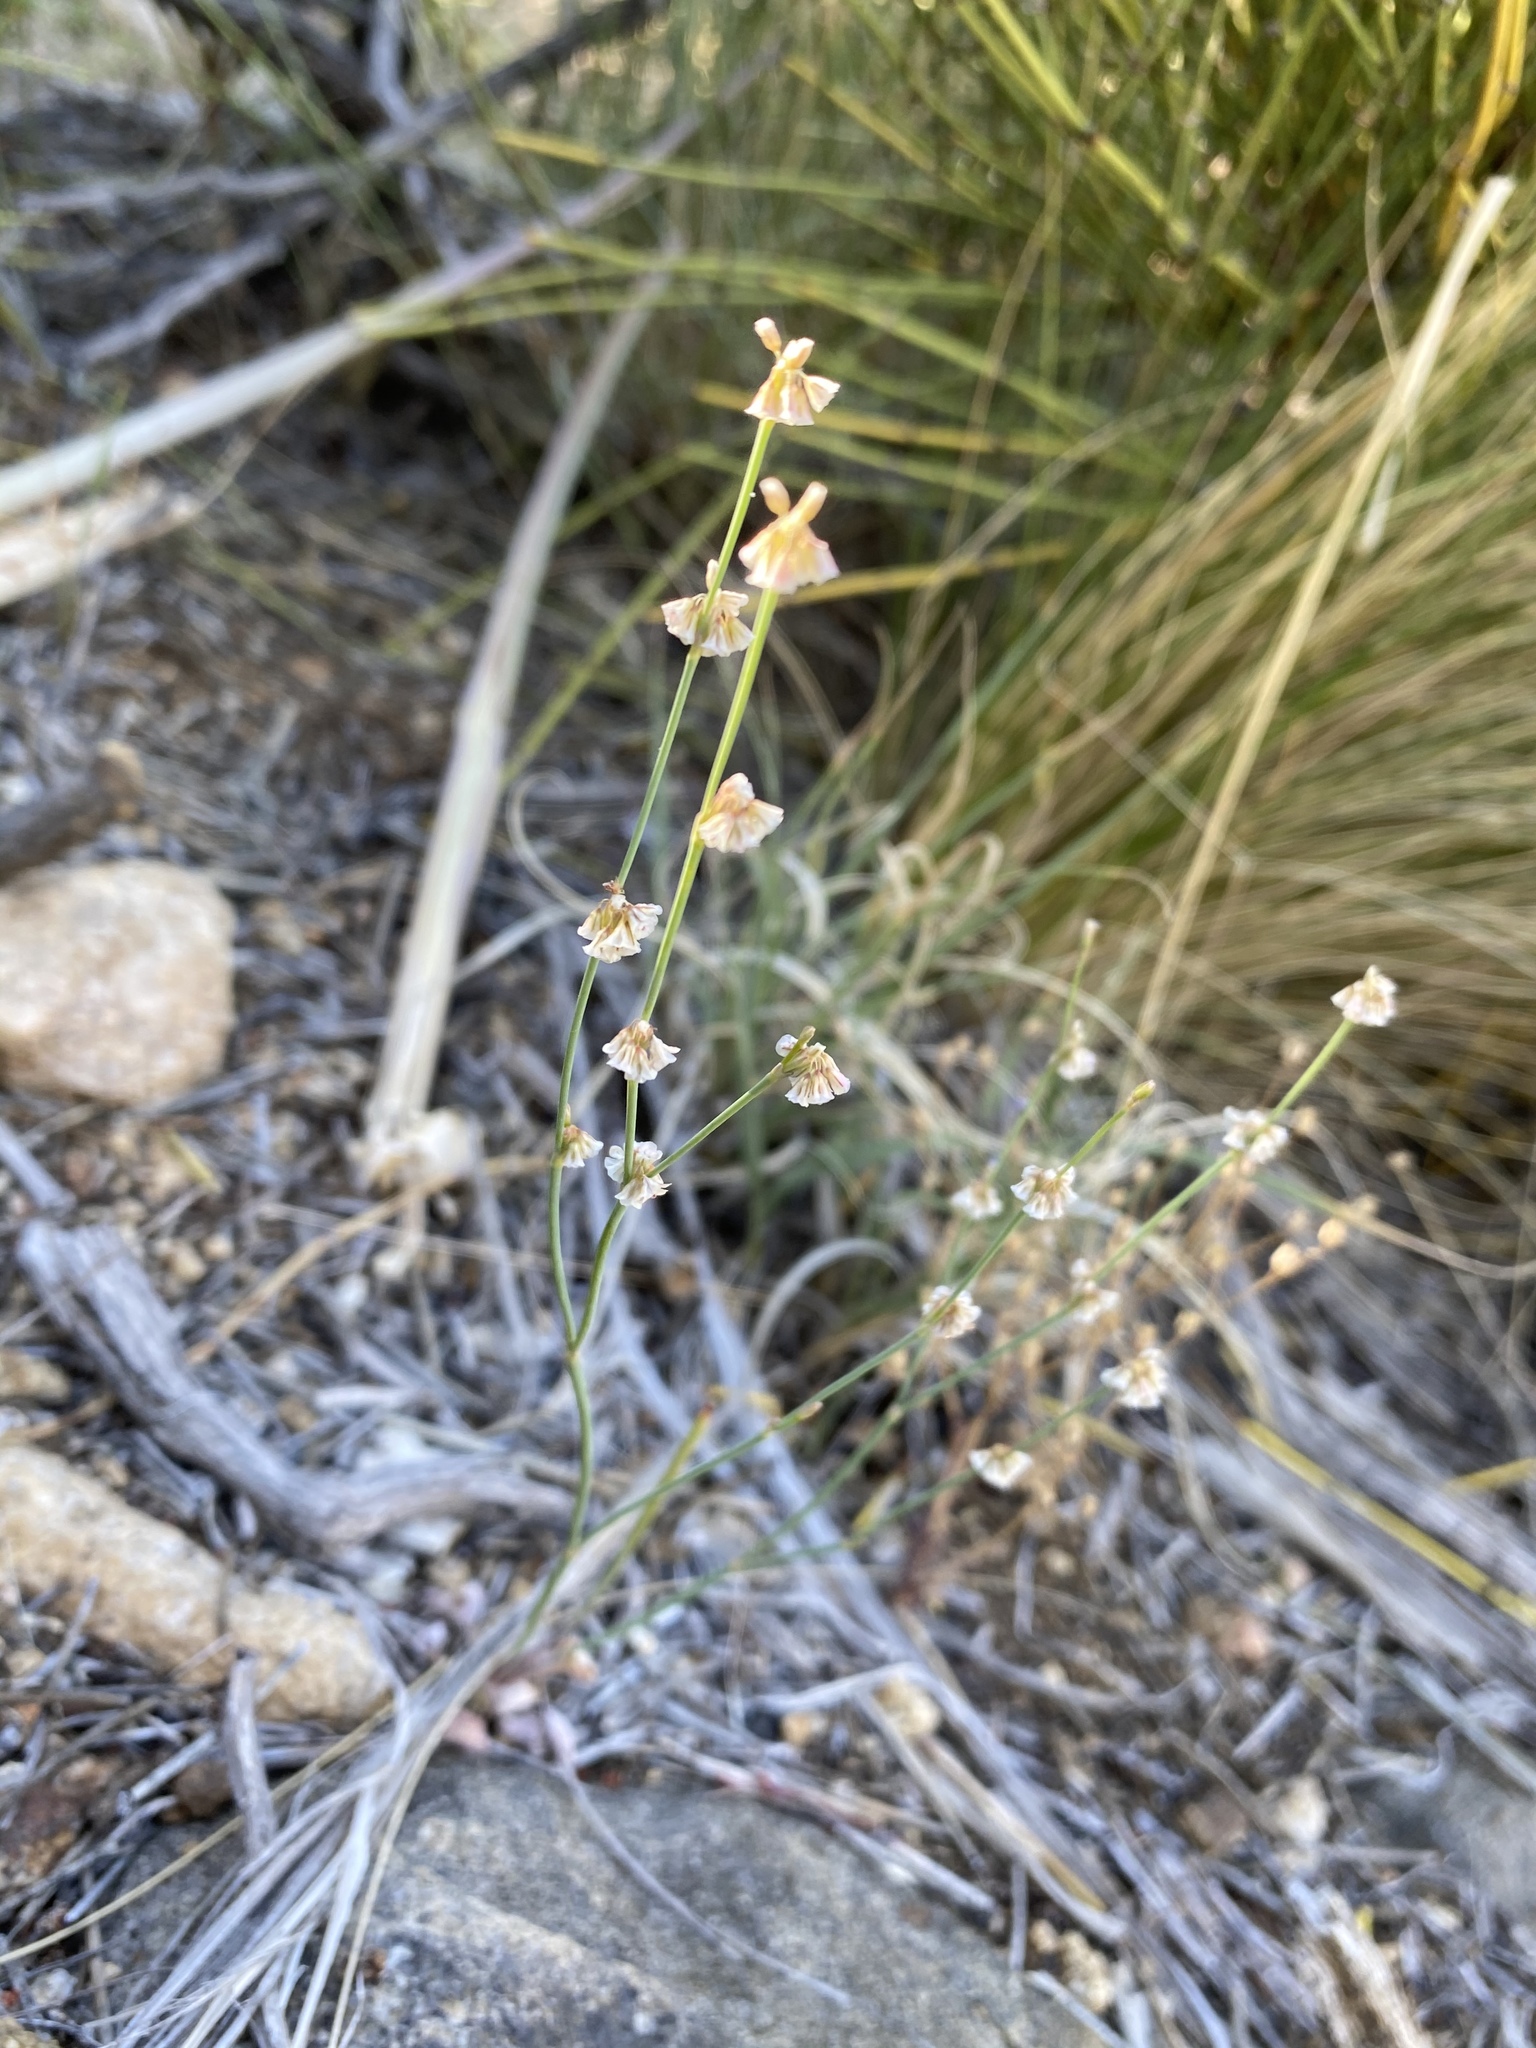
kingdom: Plantae
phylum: Tracheophyta
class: Magnoliopsida
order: Caryophyllales
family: Polygonaceae
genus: Eriogonum
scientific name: Eriogonum davidsonii
